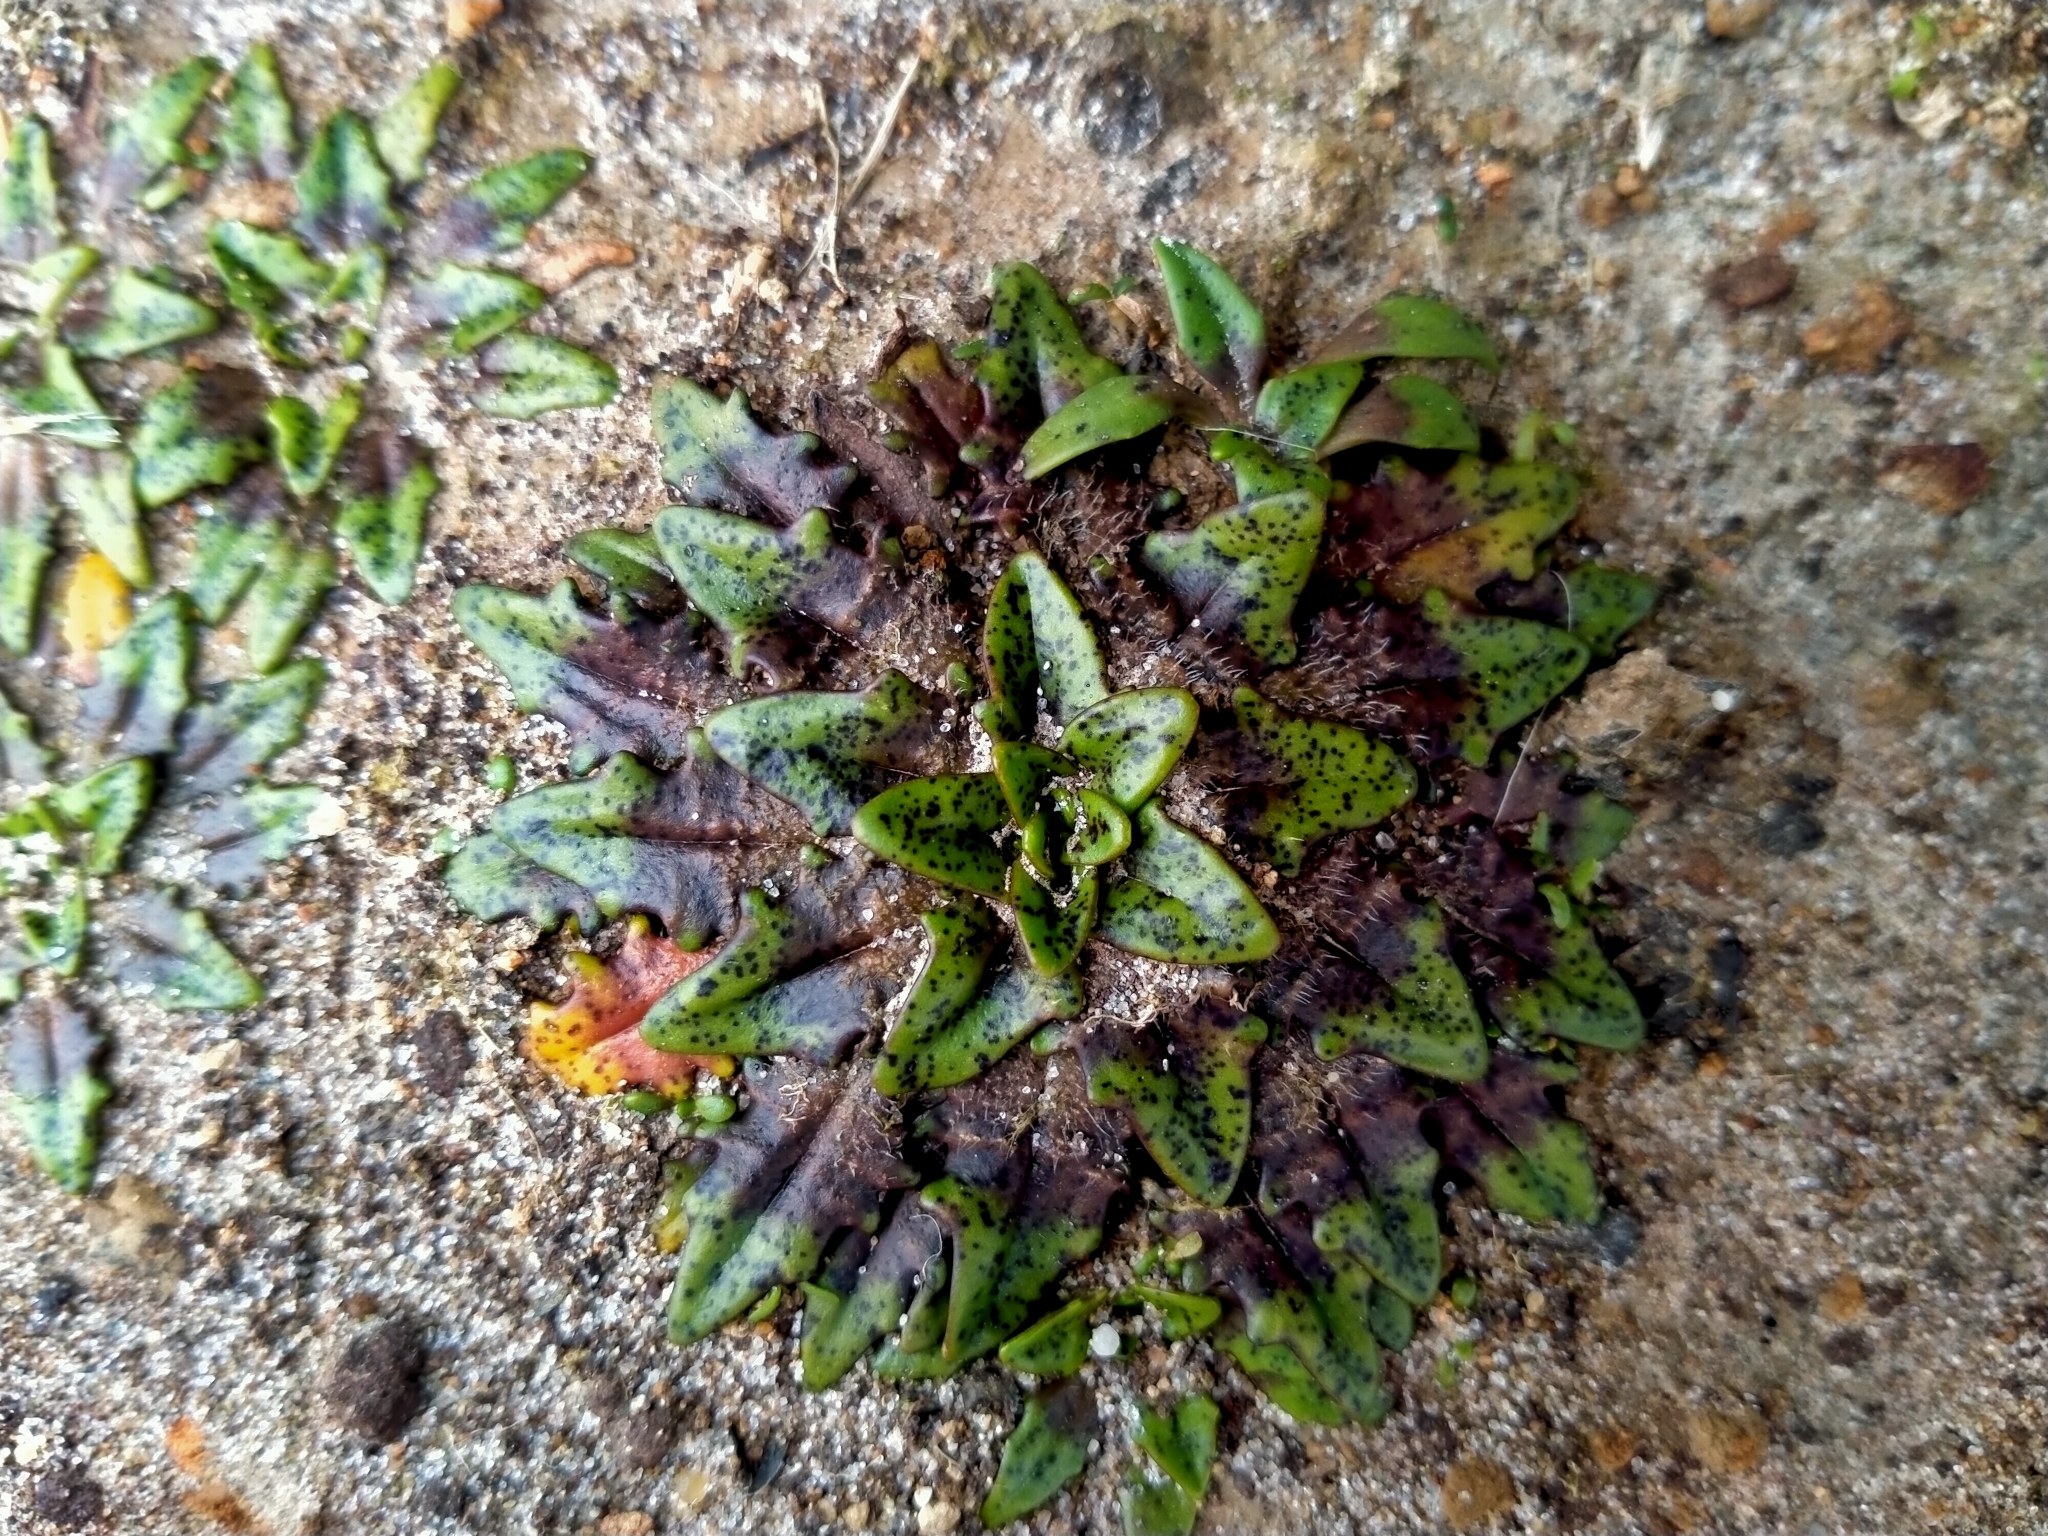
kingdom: Plantae
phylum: Tracheophyta
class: Magnoliopsida
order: Lamiales
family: Plantaginaceae
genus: Plantago
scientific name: Plantago triandra
